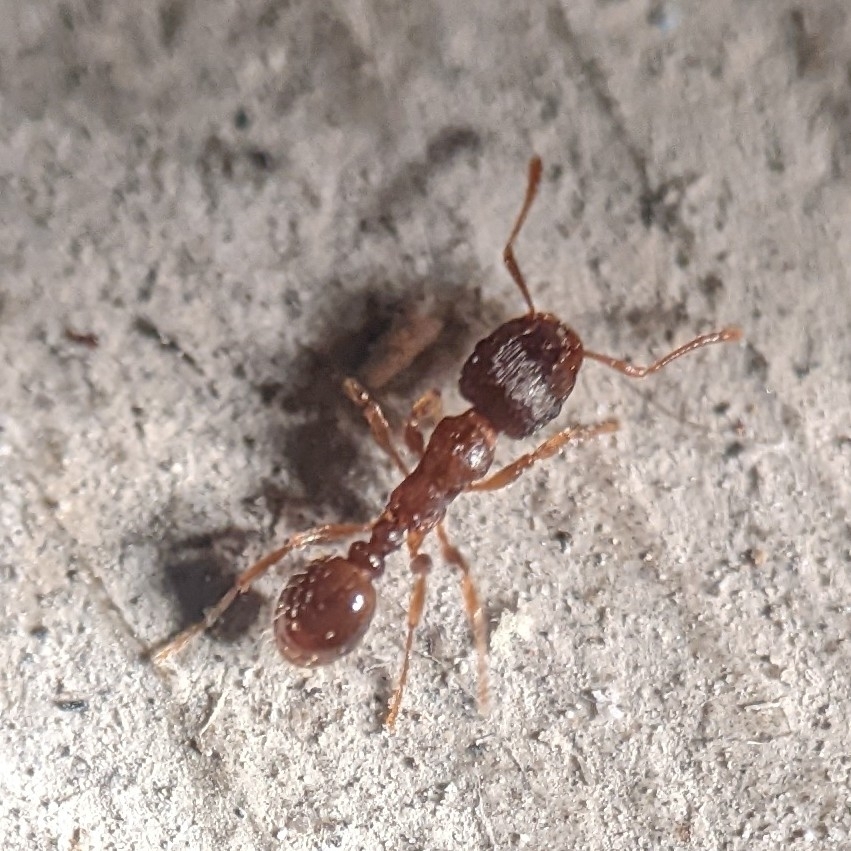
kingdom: Animalia
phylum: Arthropoda
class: Insecta
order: Hymenoptera
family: Formicidae
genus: Tetramorium
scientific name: Tetramorium immigrans
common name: Pavement ant
